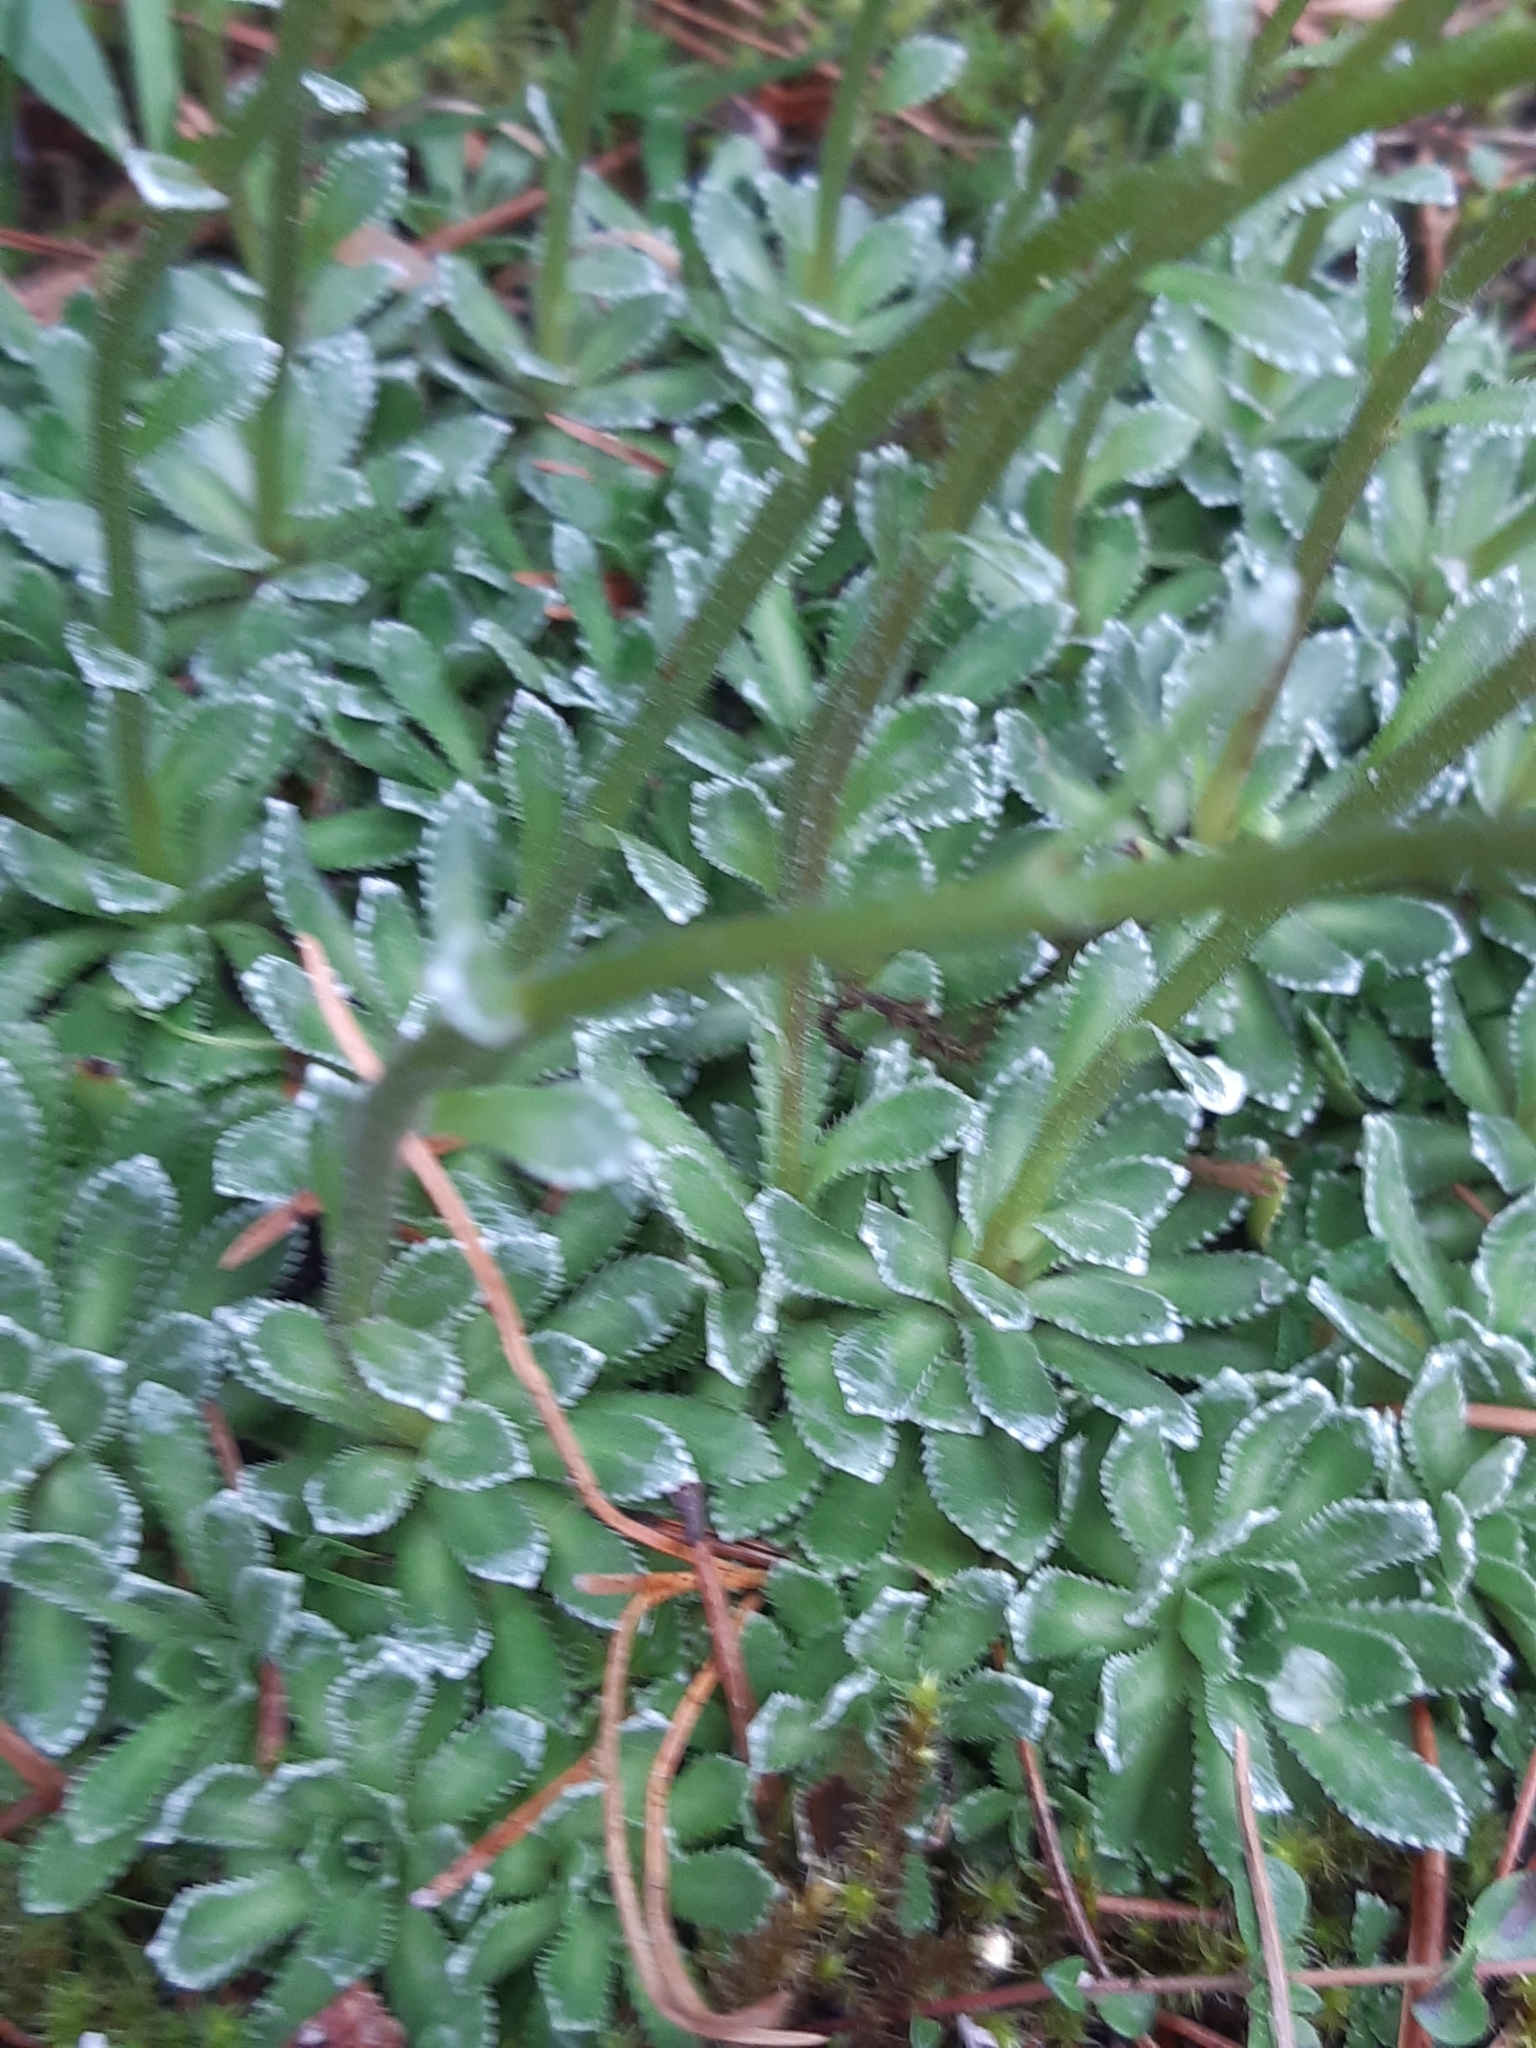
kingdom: Plantae
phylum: Tracheophyta
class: Magnoliopsida
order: Saxifragales
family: Saxifragaceae
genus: Saxifraga
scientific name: Saxifraga paniculata
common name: Livelong saxifrage
